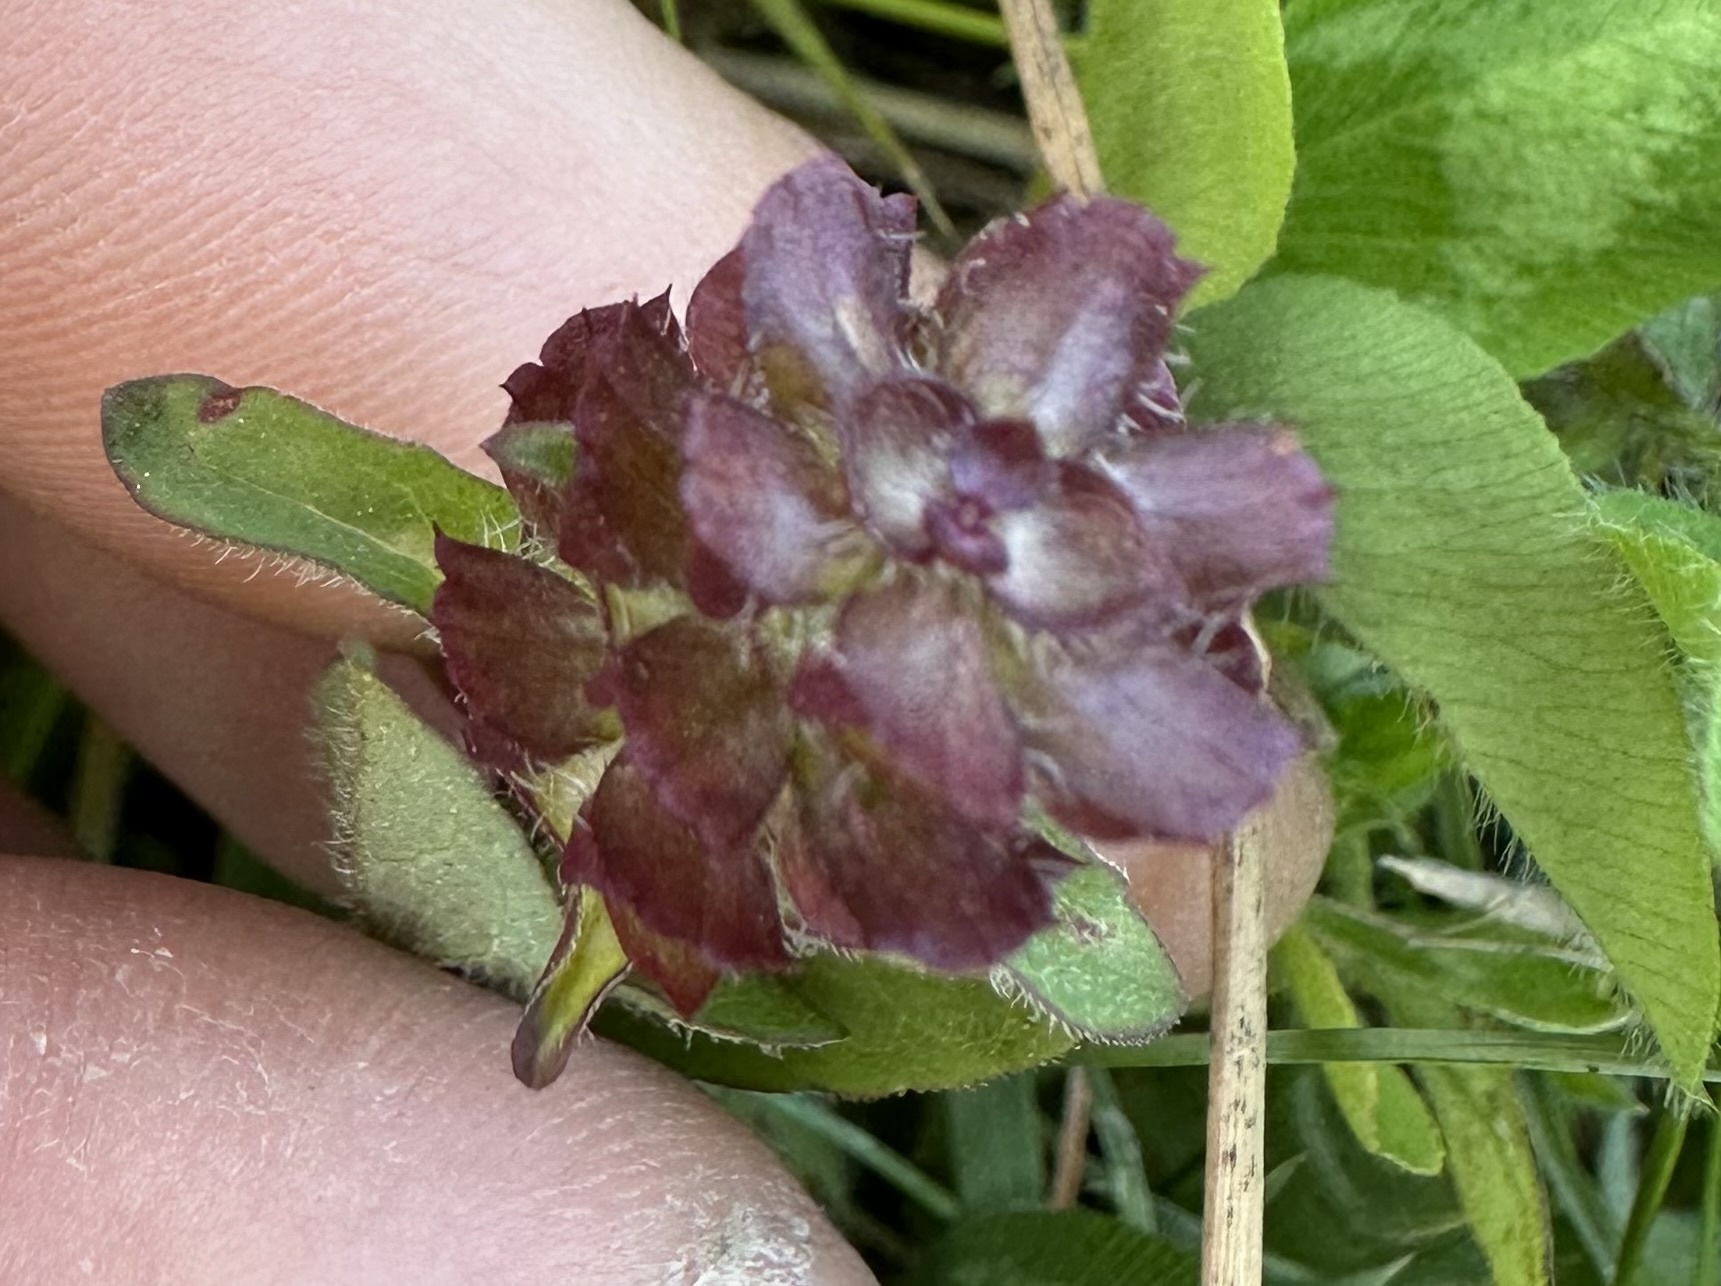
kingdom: Plantae
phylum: Tracheophyta
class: Magnoliopsida
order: Lamiales
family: Lamiaceae
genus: Prunella
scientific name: Prunella vulgaris
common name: Heal-all
